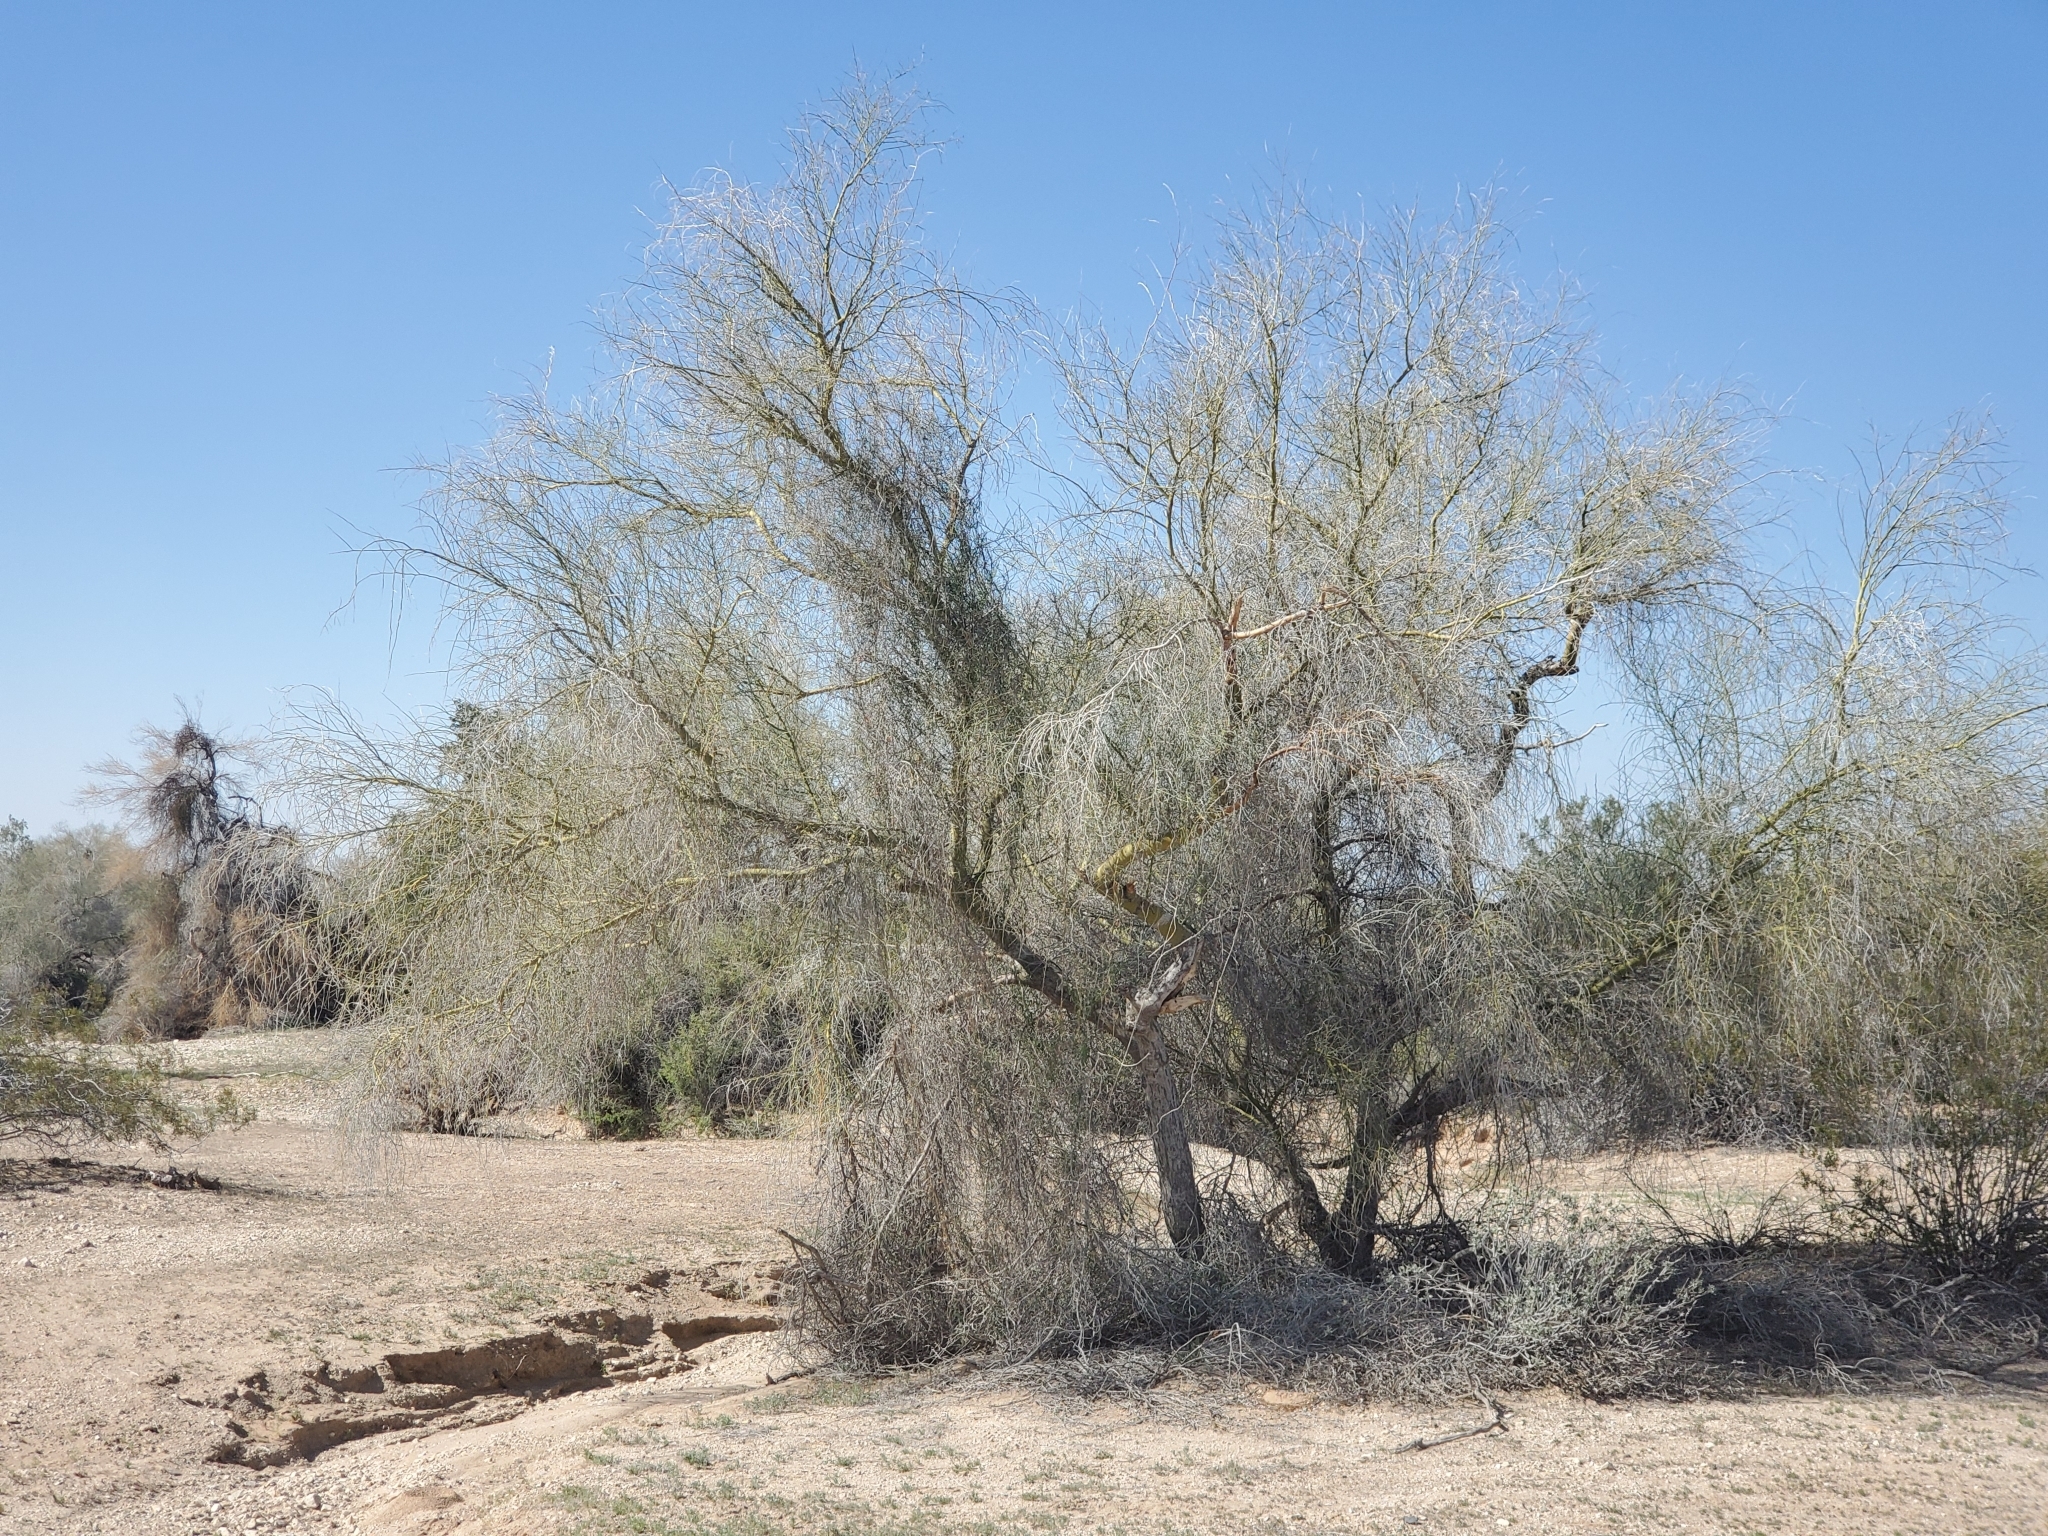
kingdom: Plantae
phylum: Tracheophyta
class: Magnoliopsida
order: Fabales
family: Fabaceae
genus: Parkinsonia
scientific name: Parkinsonia florida
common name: Blue paloverde
